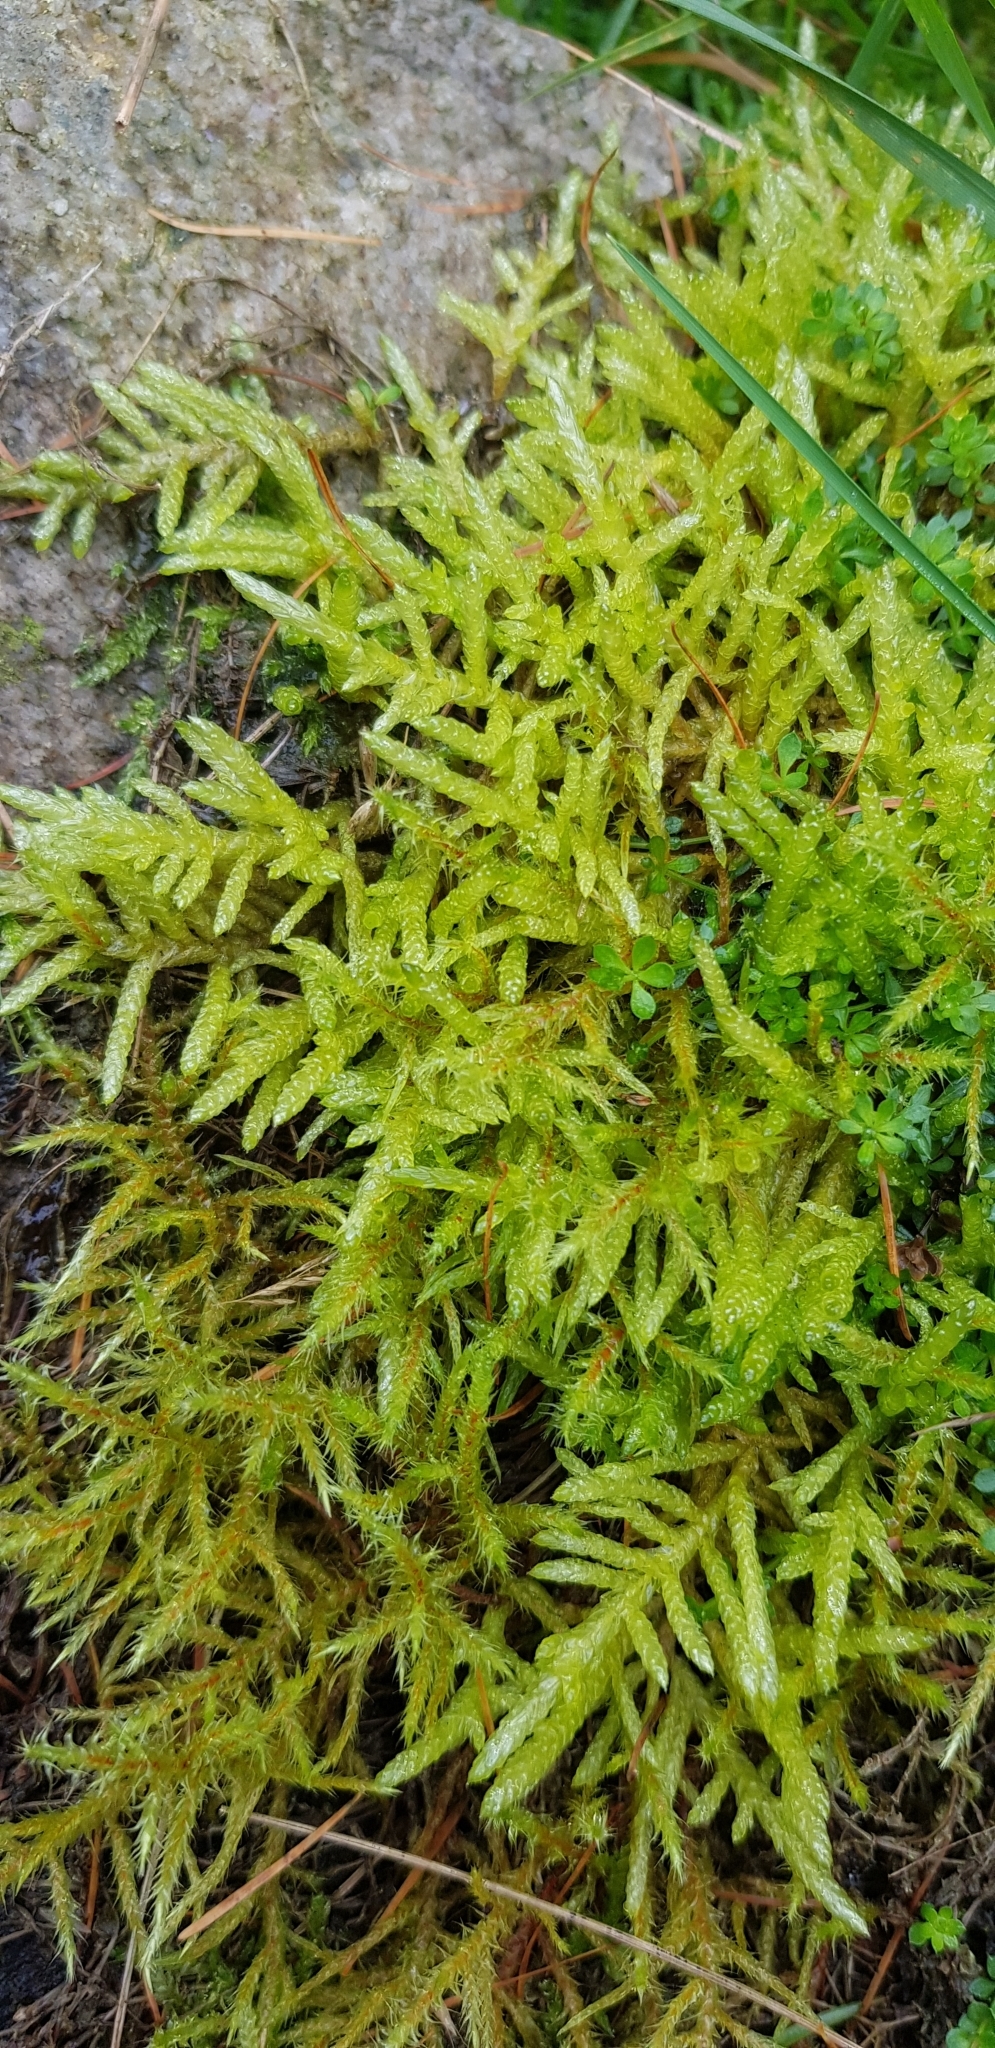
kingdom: Plantae
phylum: Bryophyta
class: Bryopsida
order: Hypnales
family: Brachytheciaceae
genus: Pseudoscleropodium
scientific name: Pseudoscleropodium purum
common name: Neat feather-moss
